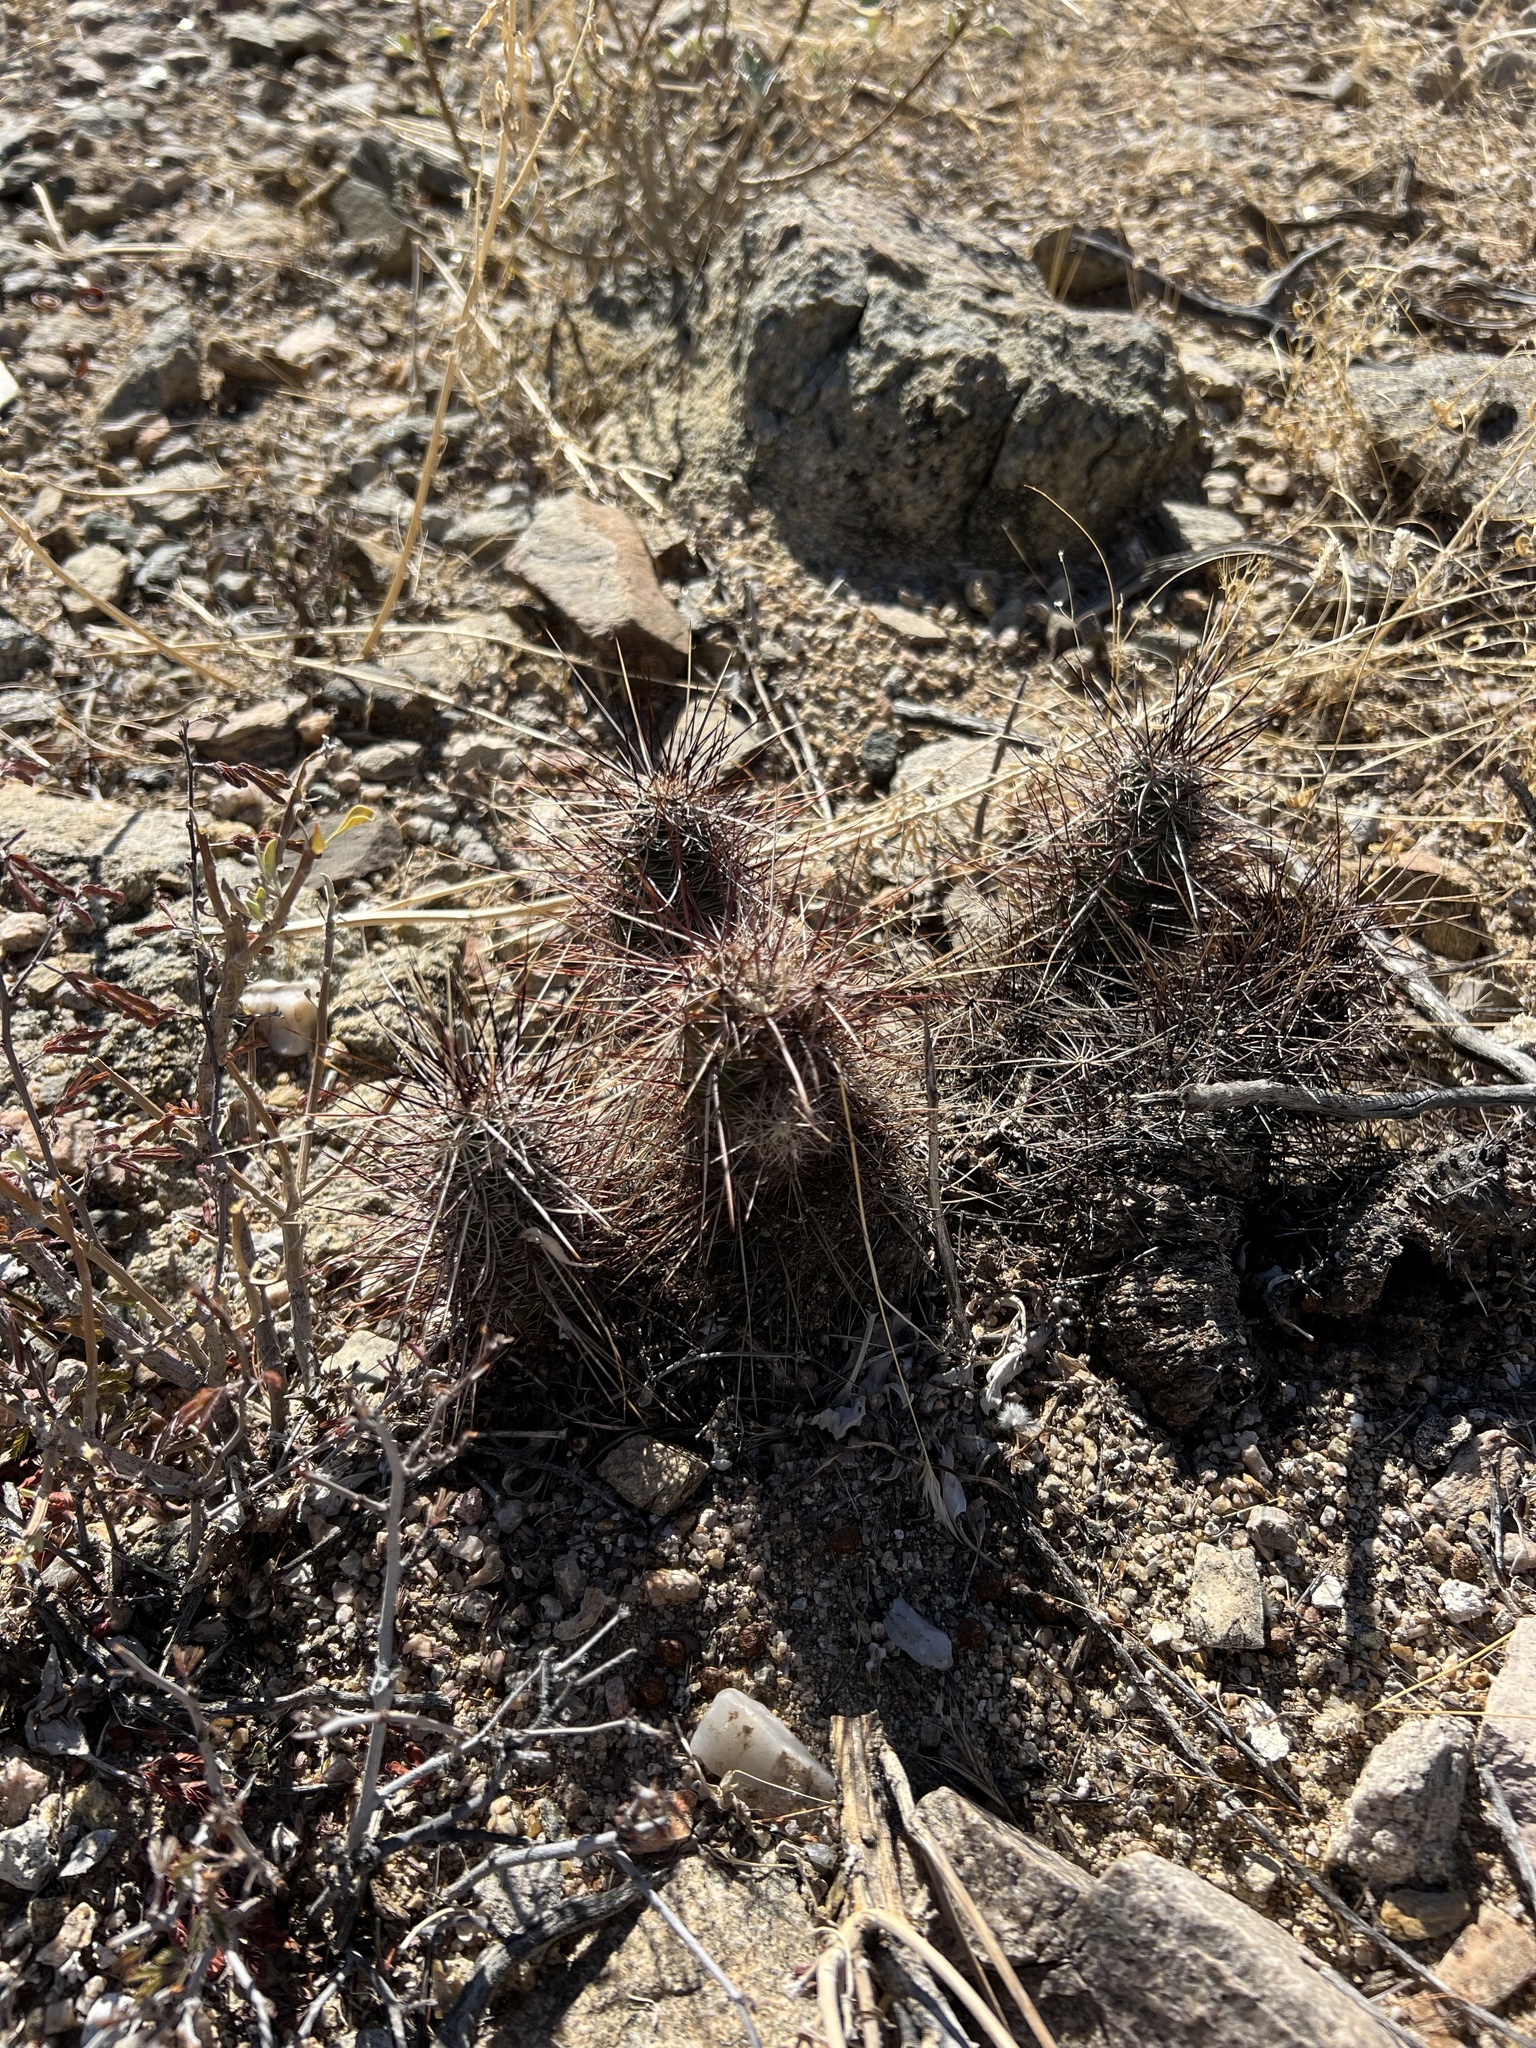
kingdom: Plantae
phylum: Tracheophyta
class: Magnoliopsida
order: Caryophyllales
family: Cactaceae
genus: Echinocereus
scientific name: Echinocereus engelmannii
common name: Engelmann's hedgehog cactus
